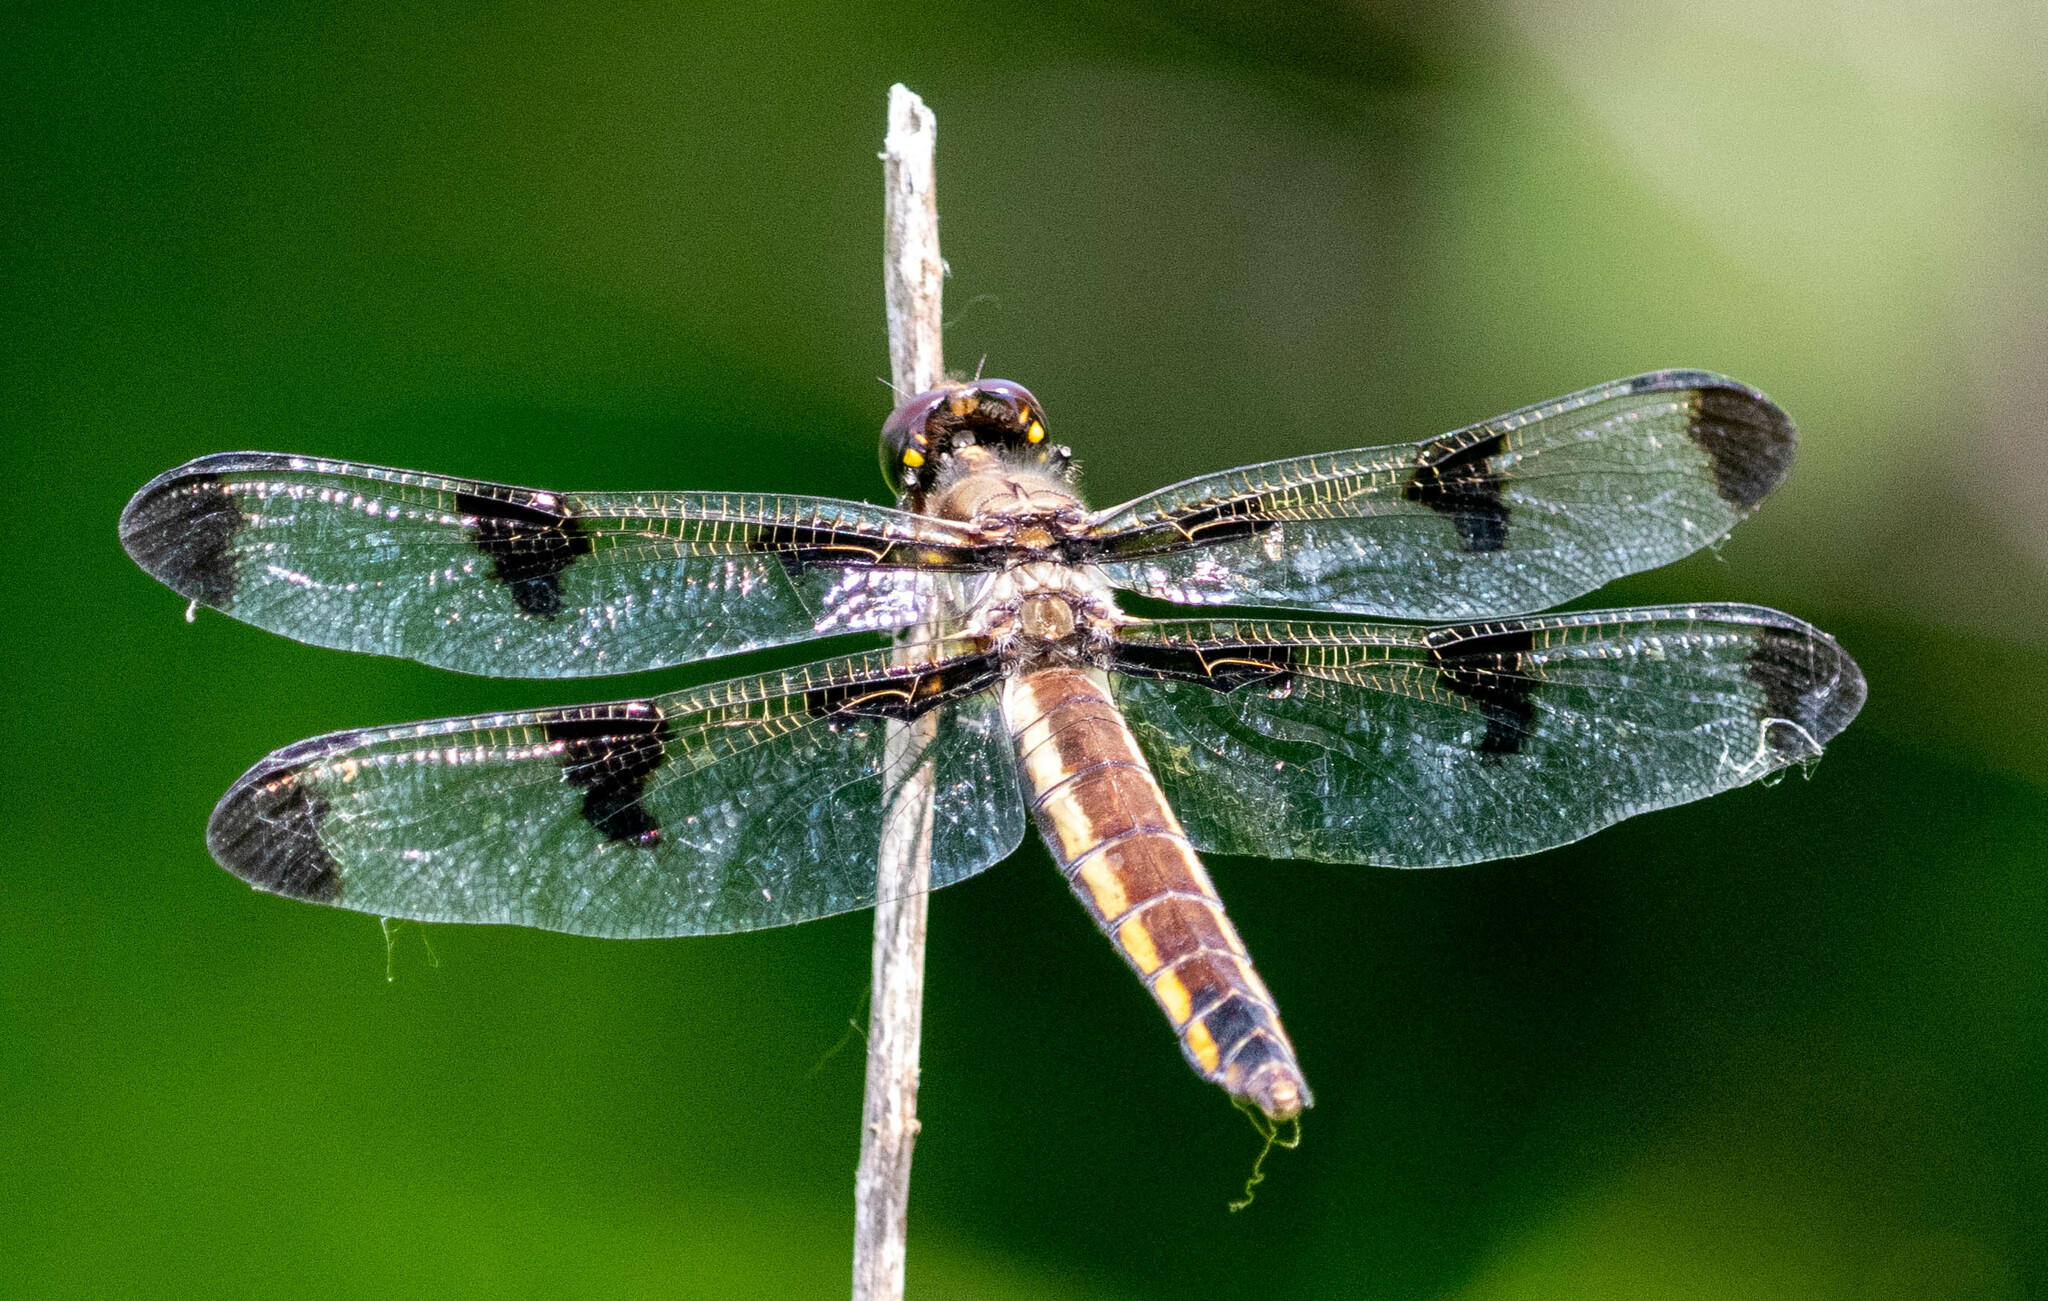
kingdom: Animalia
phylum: Arthropoda
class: Insecta
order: Odonata
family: Libellulidae
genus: Libellula
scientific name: Libellula pulchella
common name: Twelve-spotted skimmer
